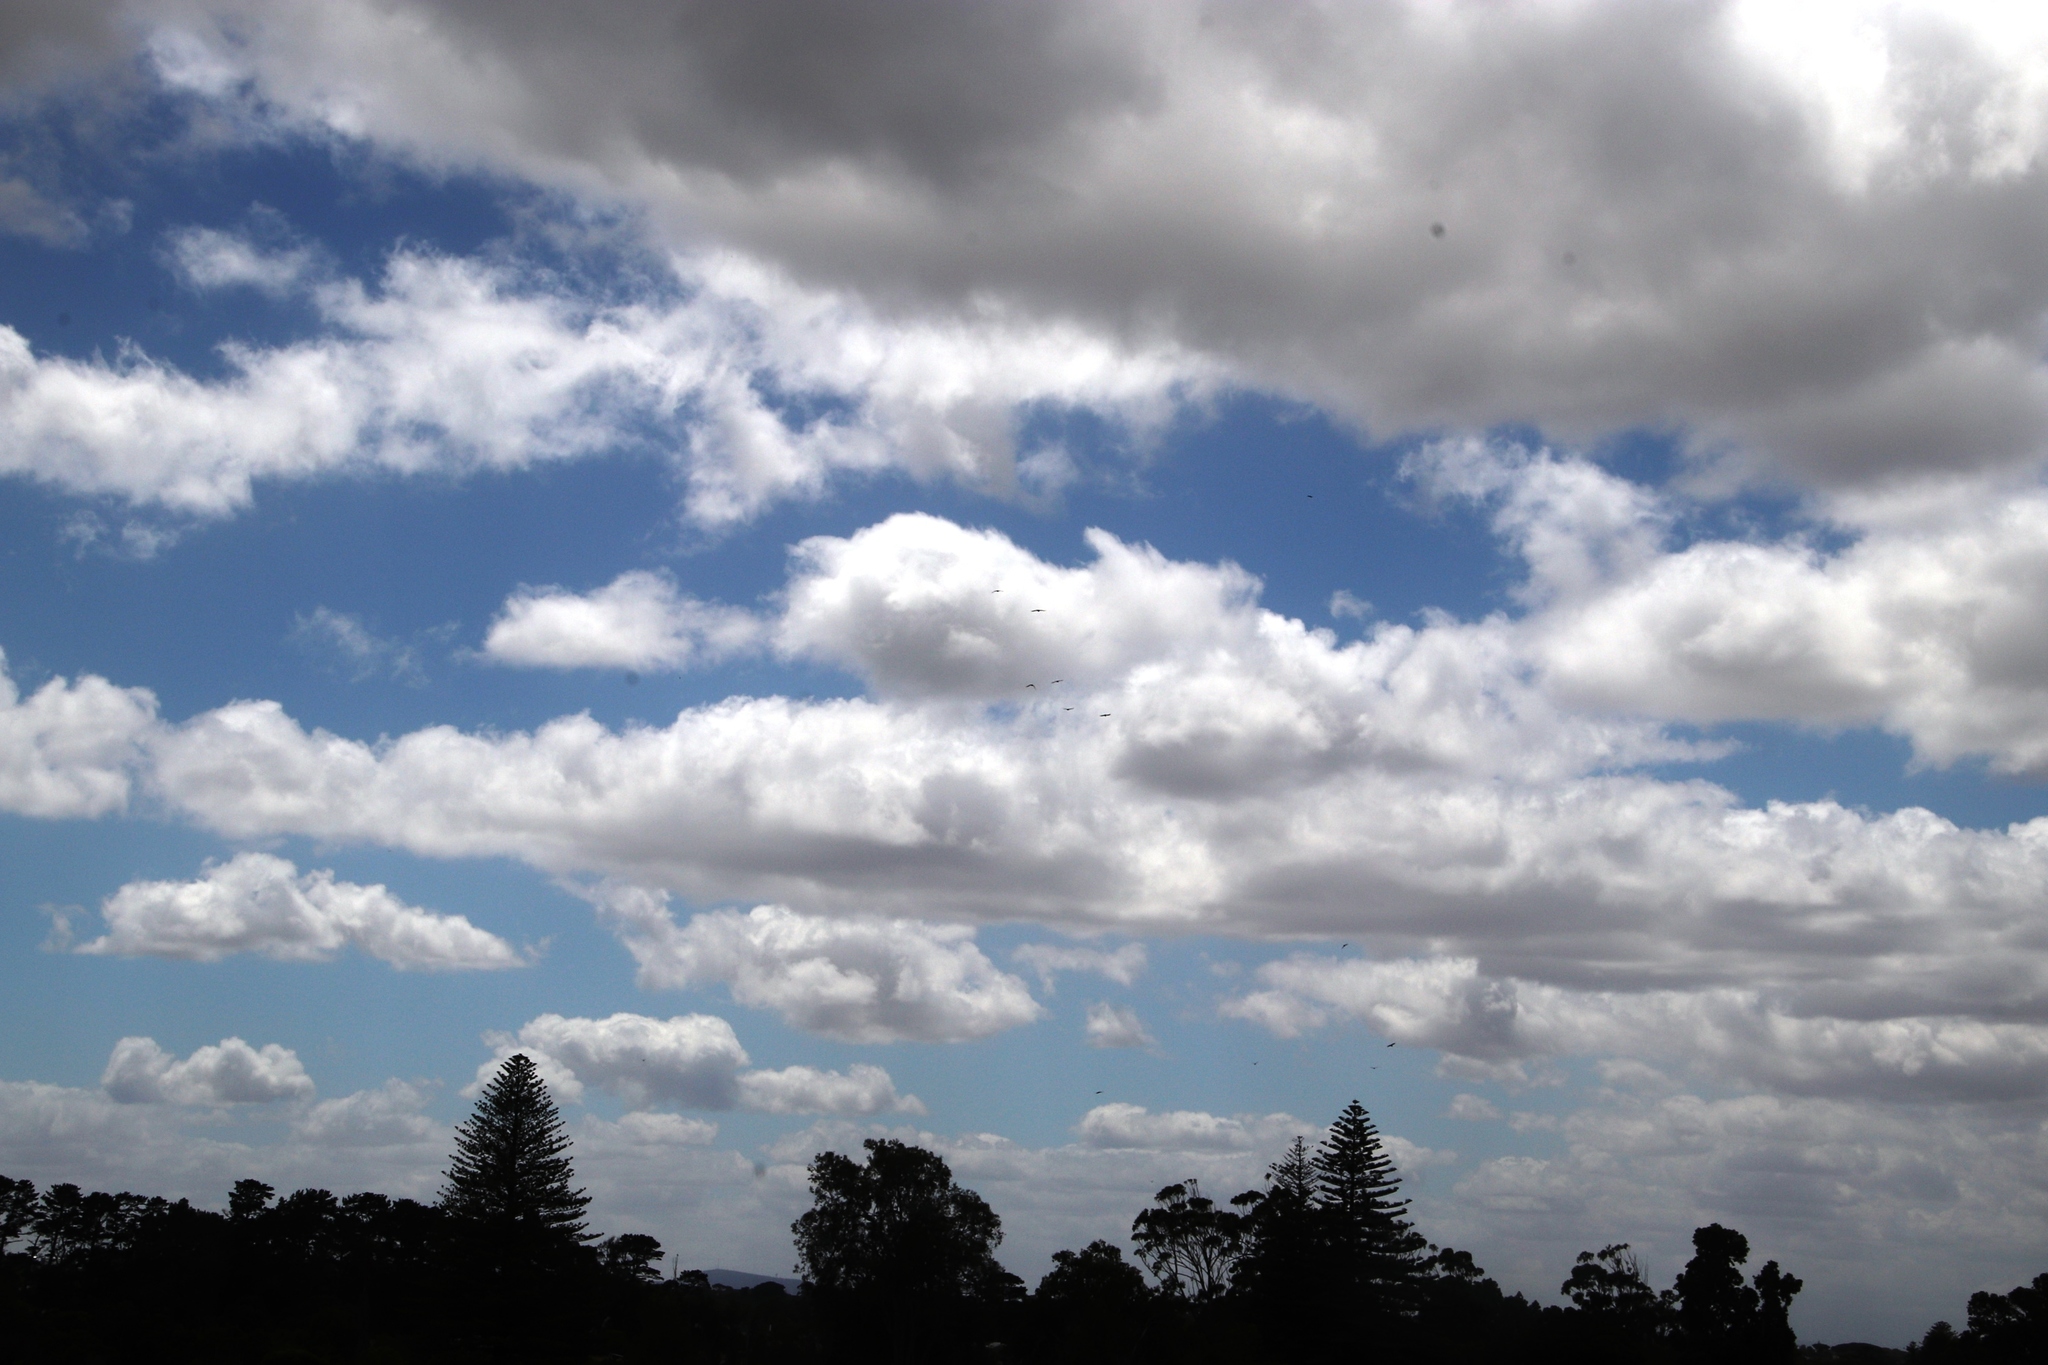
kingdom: Animalia
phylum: Chordata
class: Aves
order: Passeriformes
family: Corvidae
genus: Corvus
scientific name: Corvus albus
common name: Pied crow
